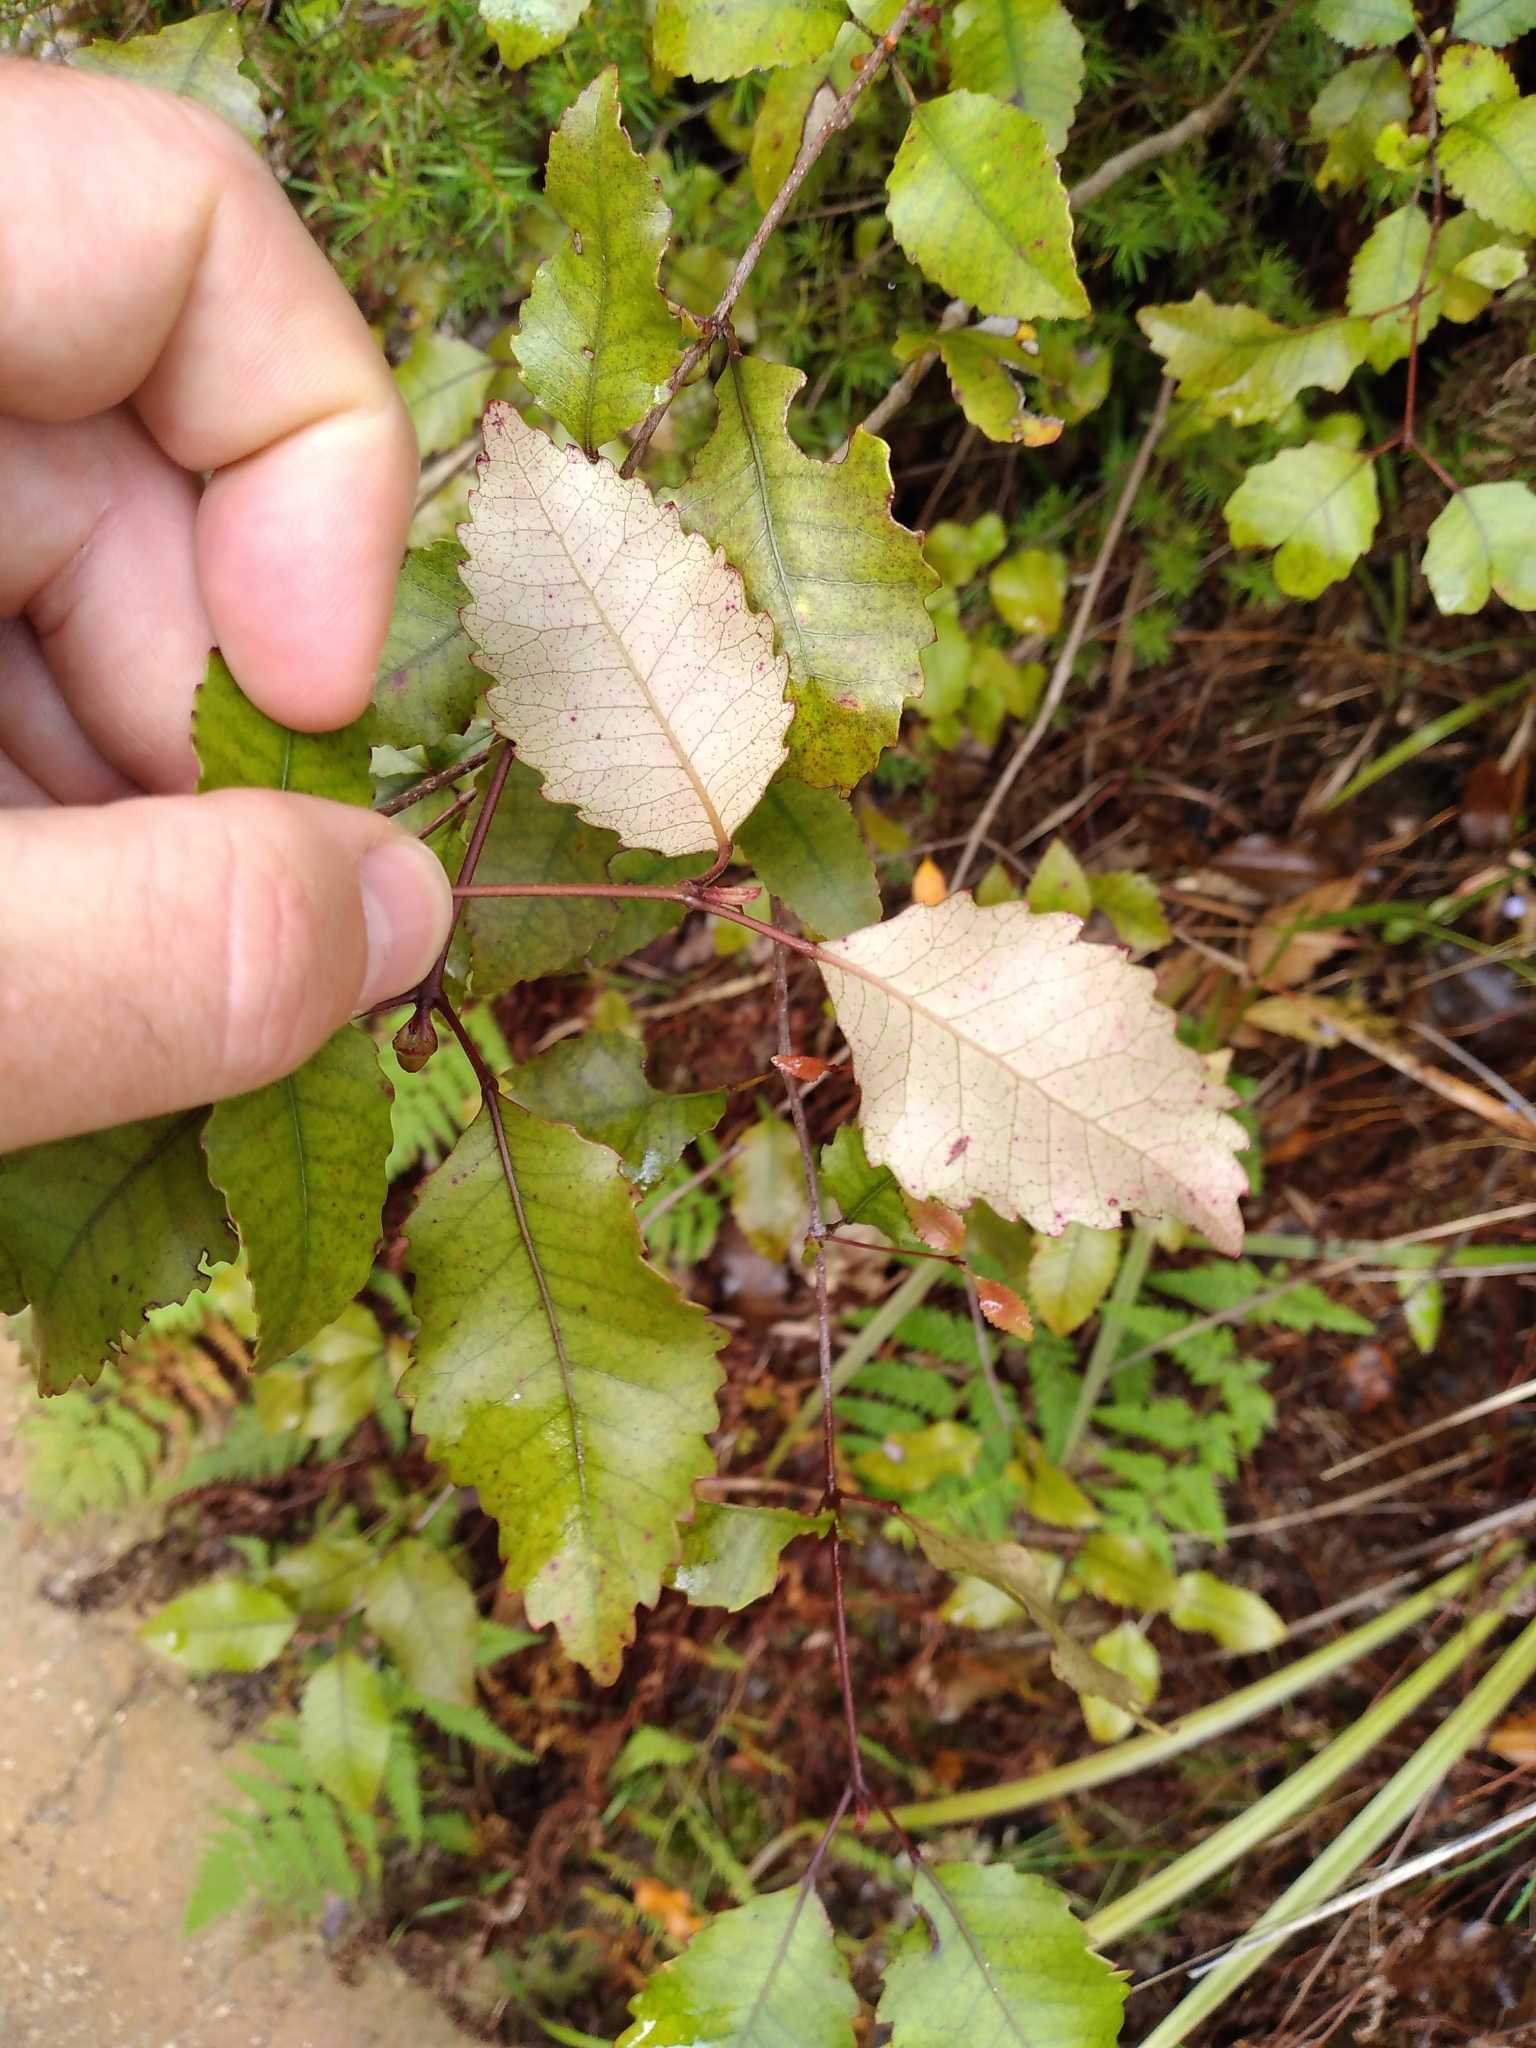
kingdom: Plantae
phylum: Tracheophyta
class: Magnoliopsida
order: Oxalidales
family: Cunoniaceae
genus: Pterophylla
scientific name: Pterophylla racemosa
